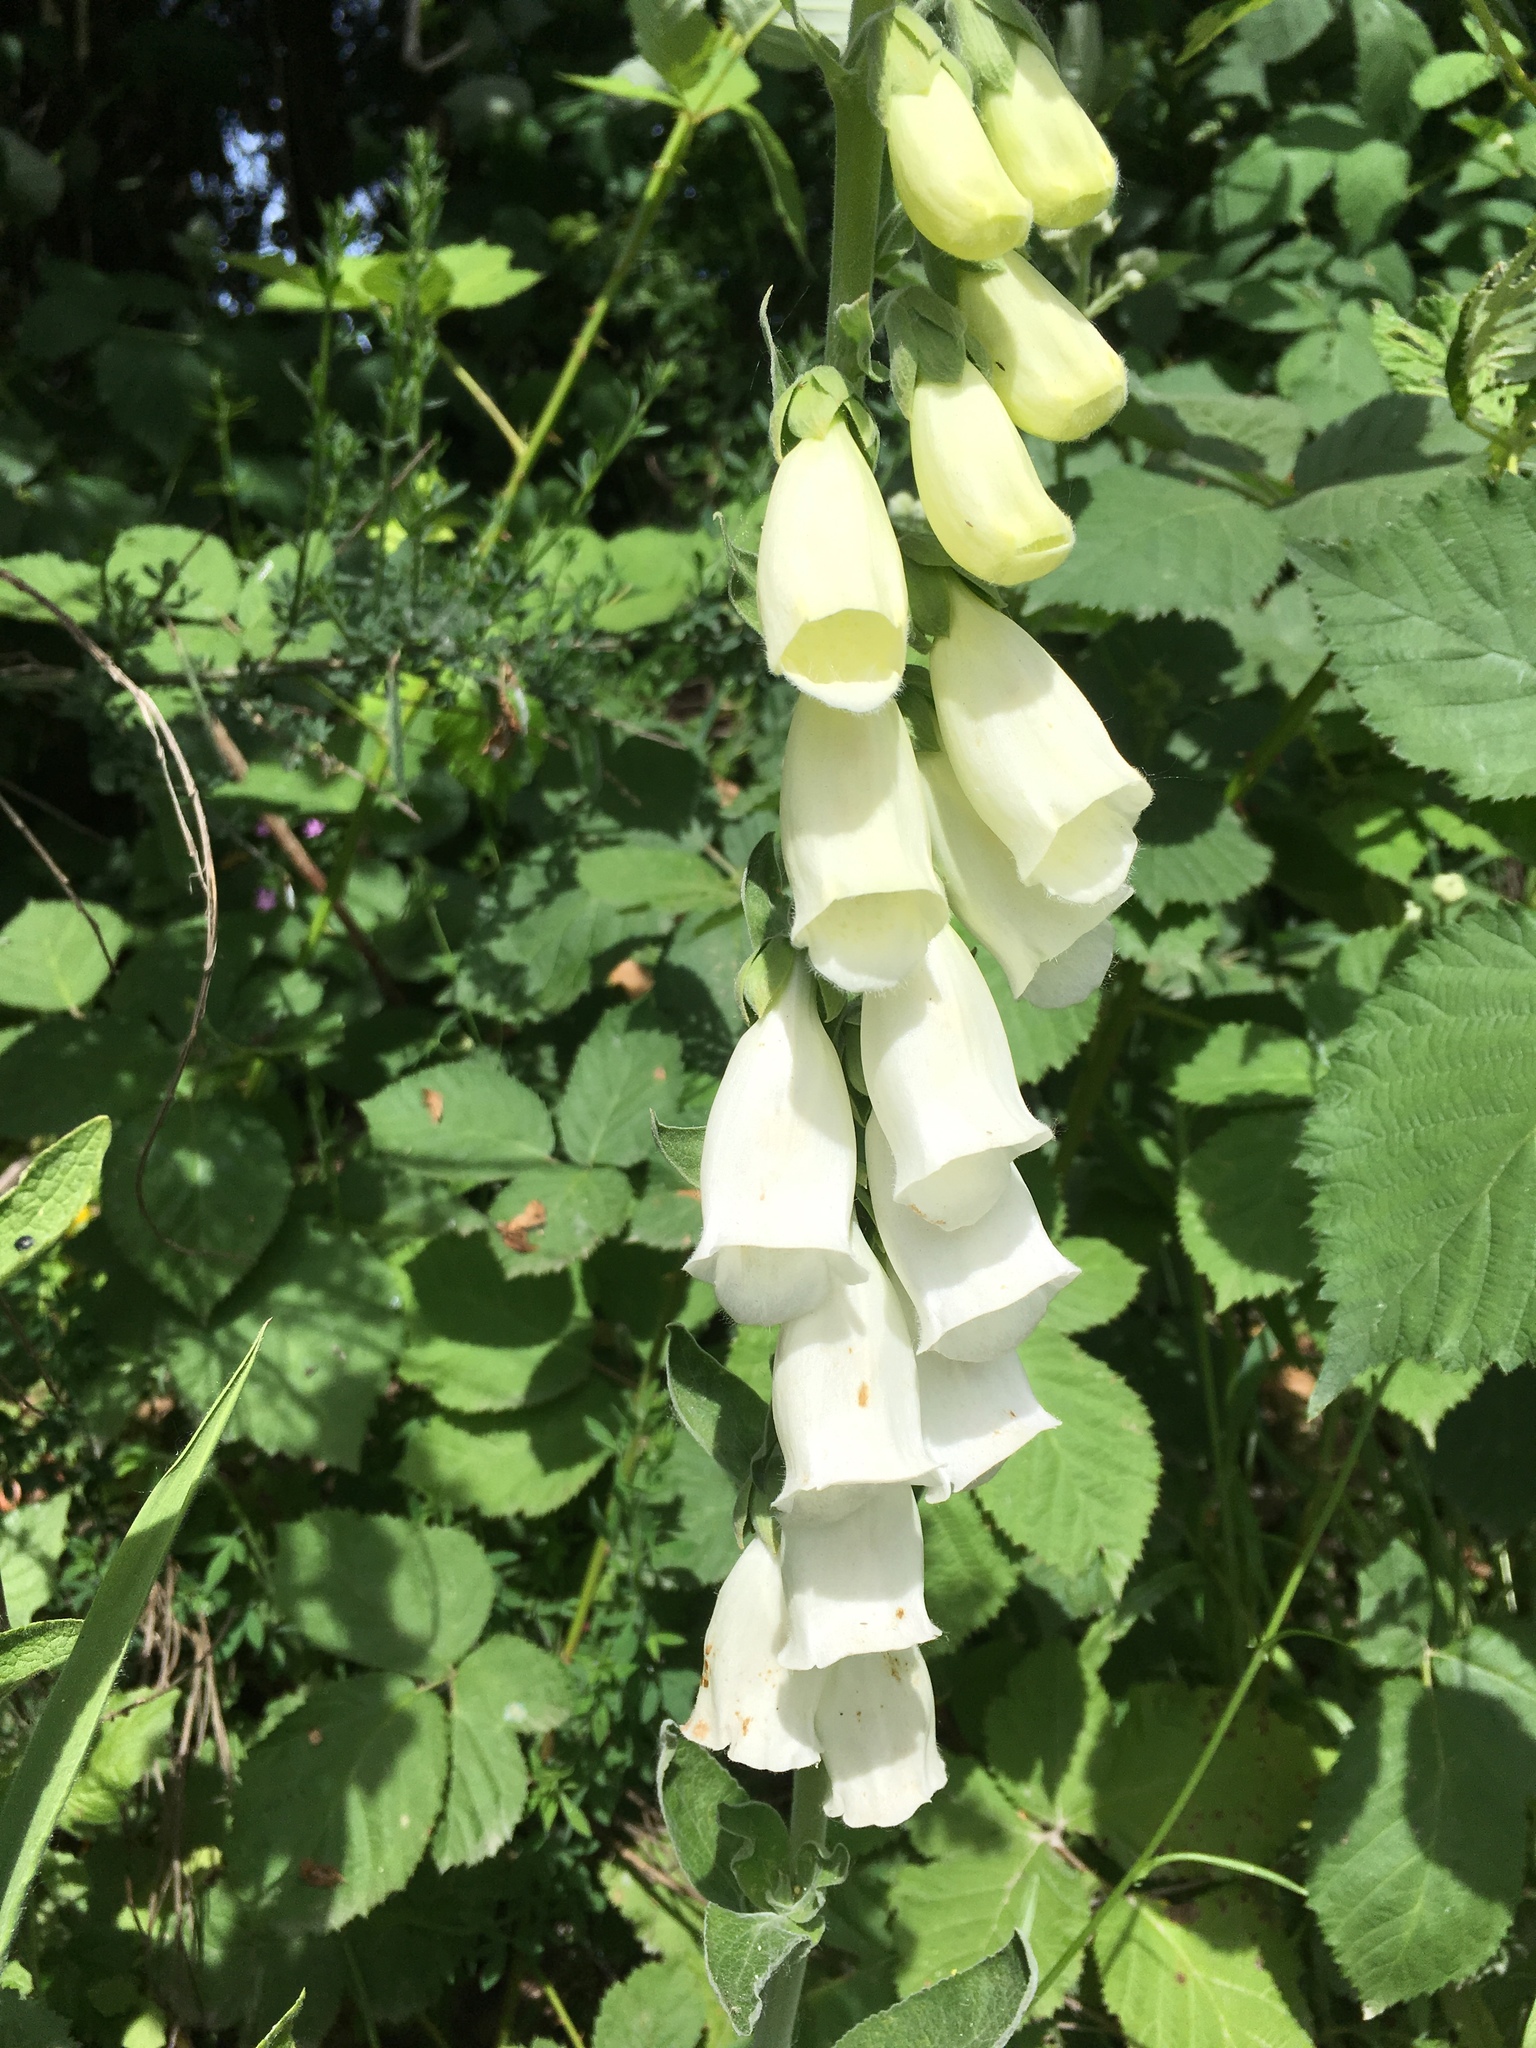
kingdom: Plantae
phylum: Tracheophyta
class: Magnoliopsida
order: Lamiales
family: Plantaginaceae
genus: Digitalis
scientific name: Digitalis purpurea
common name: Foxglove
